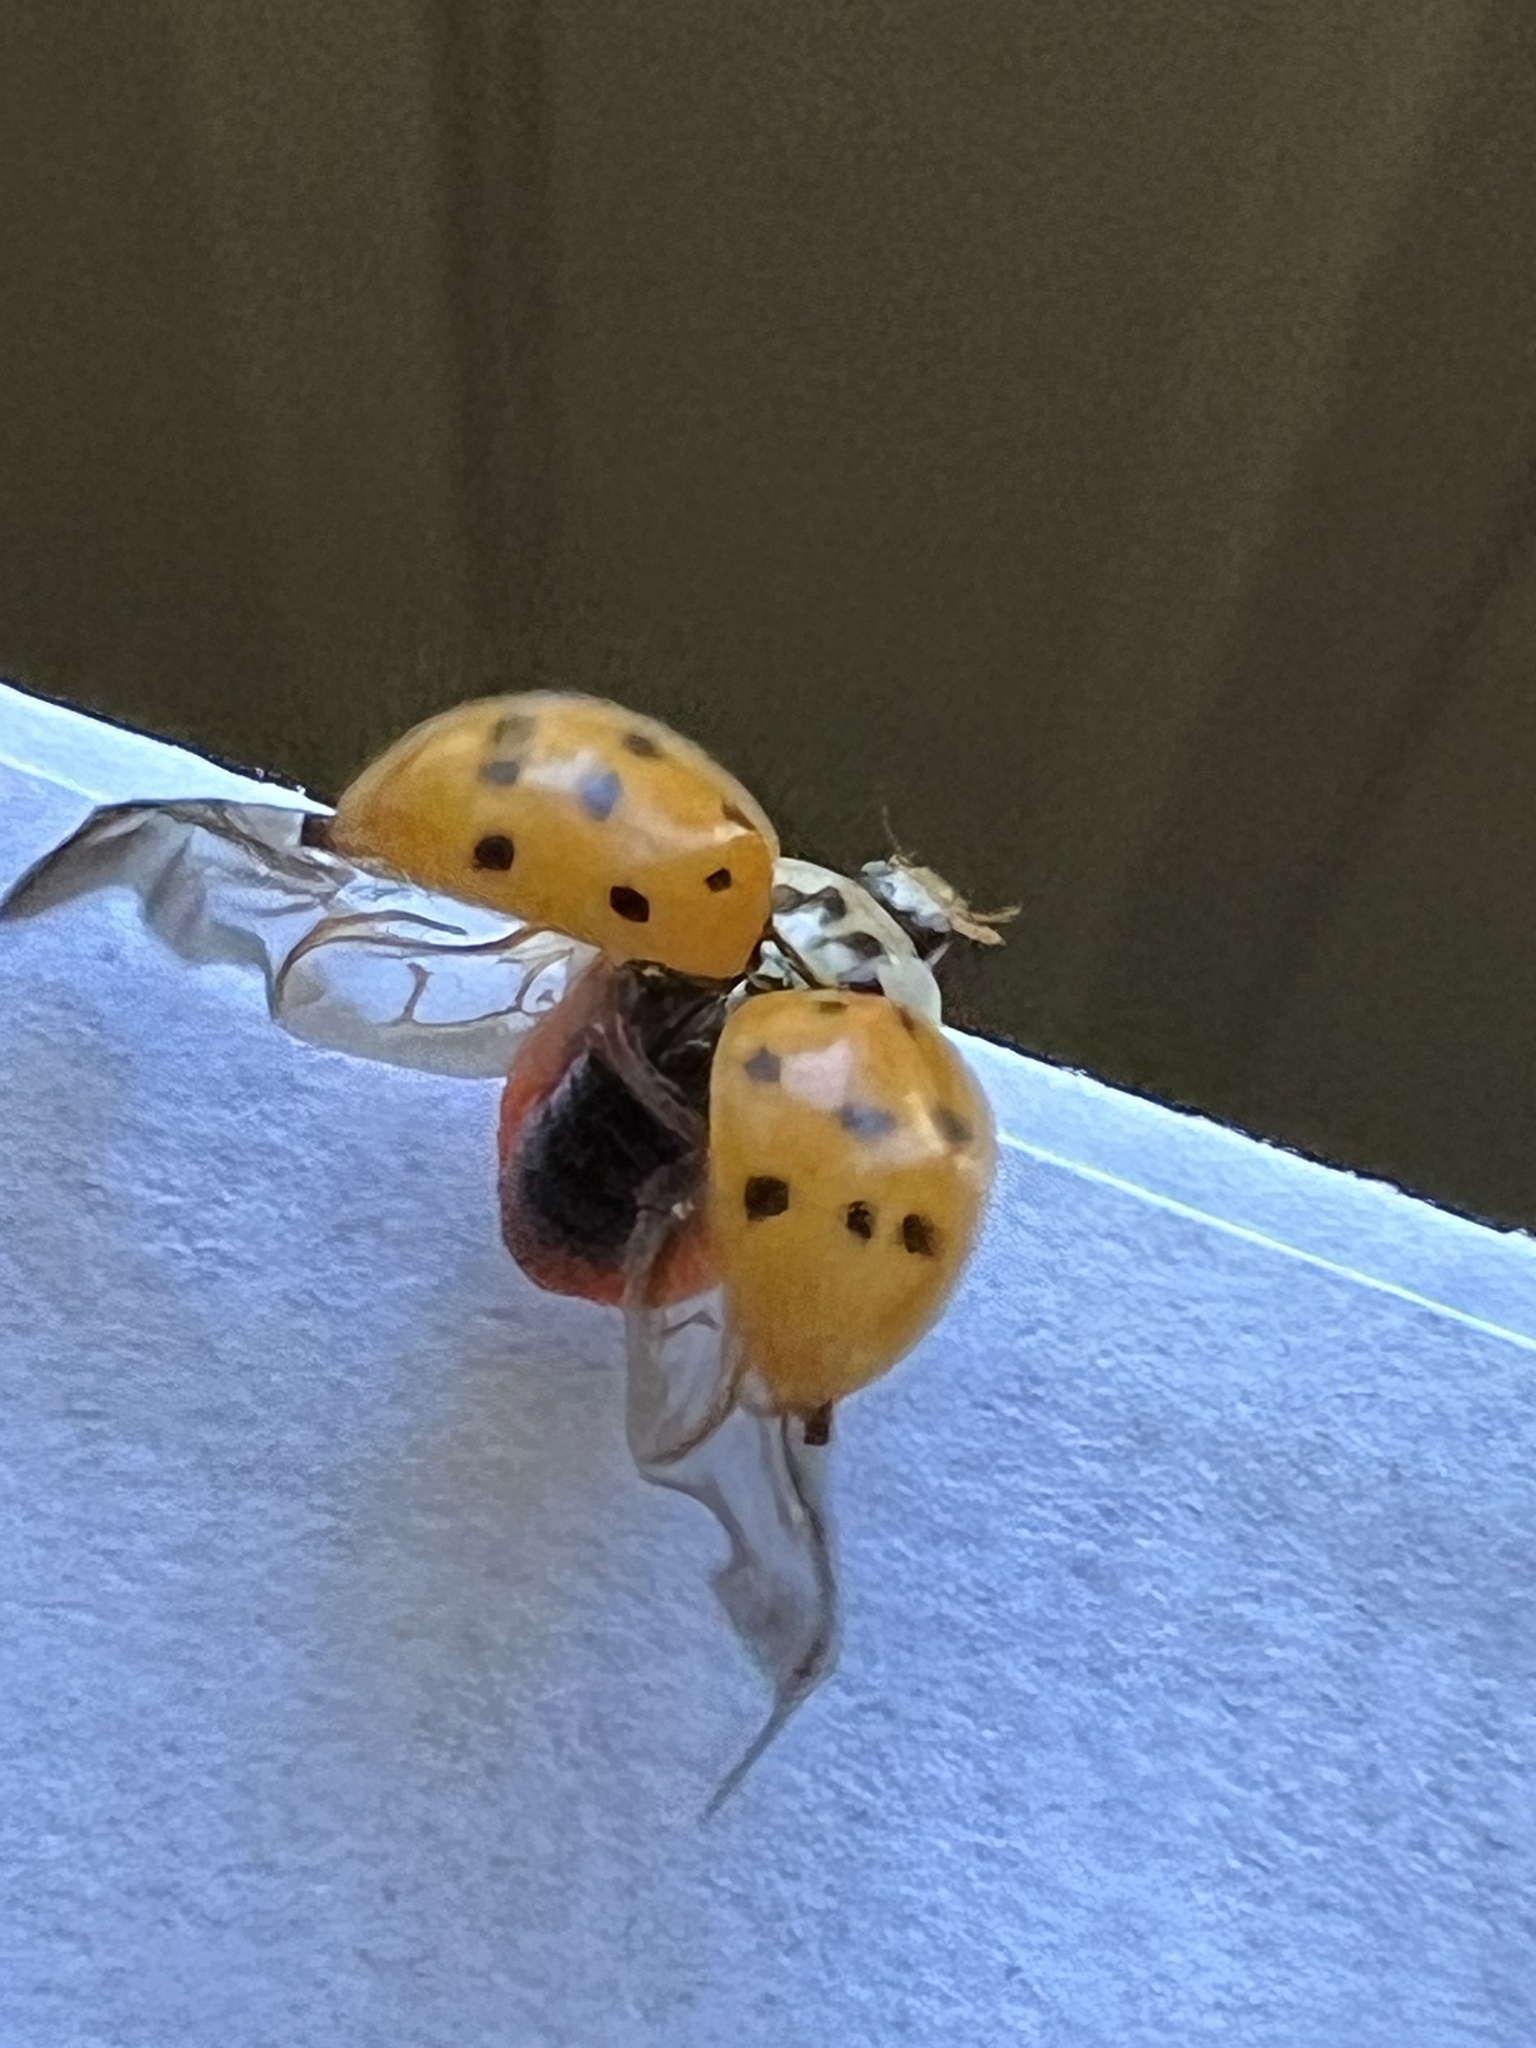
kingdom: Animalia
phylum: Arthropoda
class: Insecta
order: Coleoptera
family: Coccinellidae
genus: Harmonia
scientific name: Harmonia axyridis
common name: Harlequin ladybird
